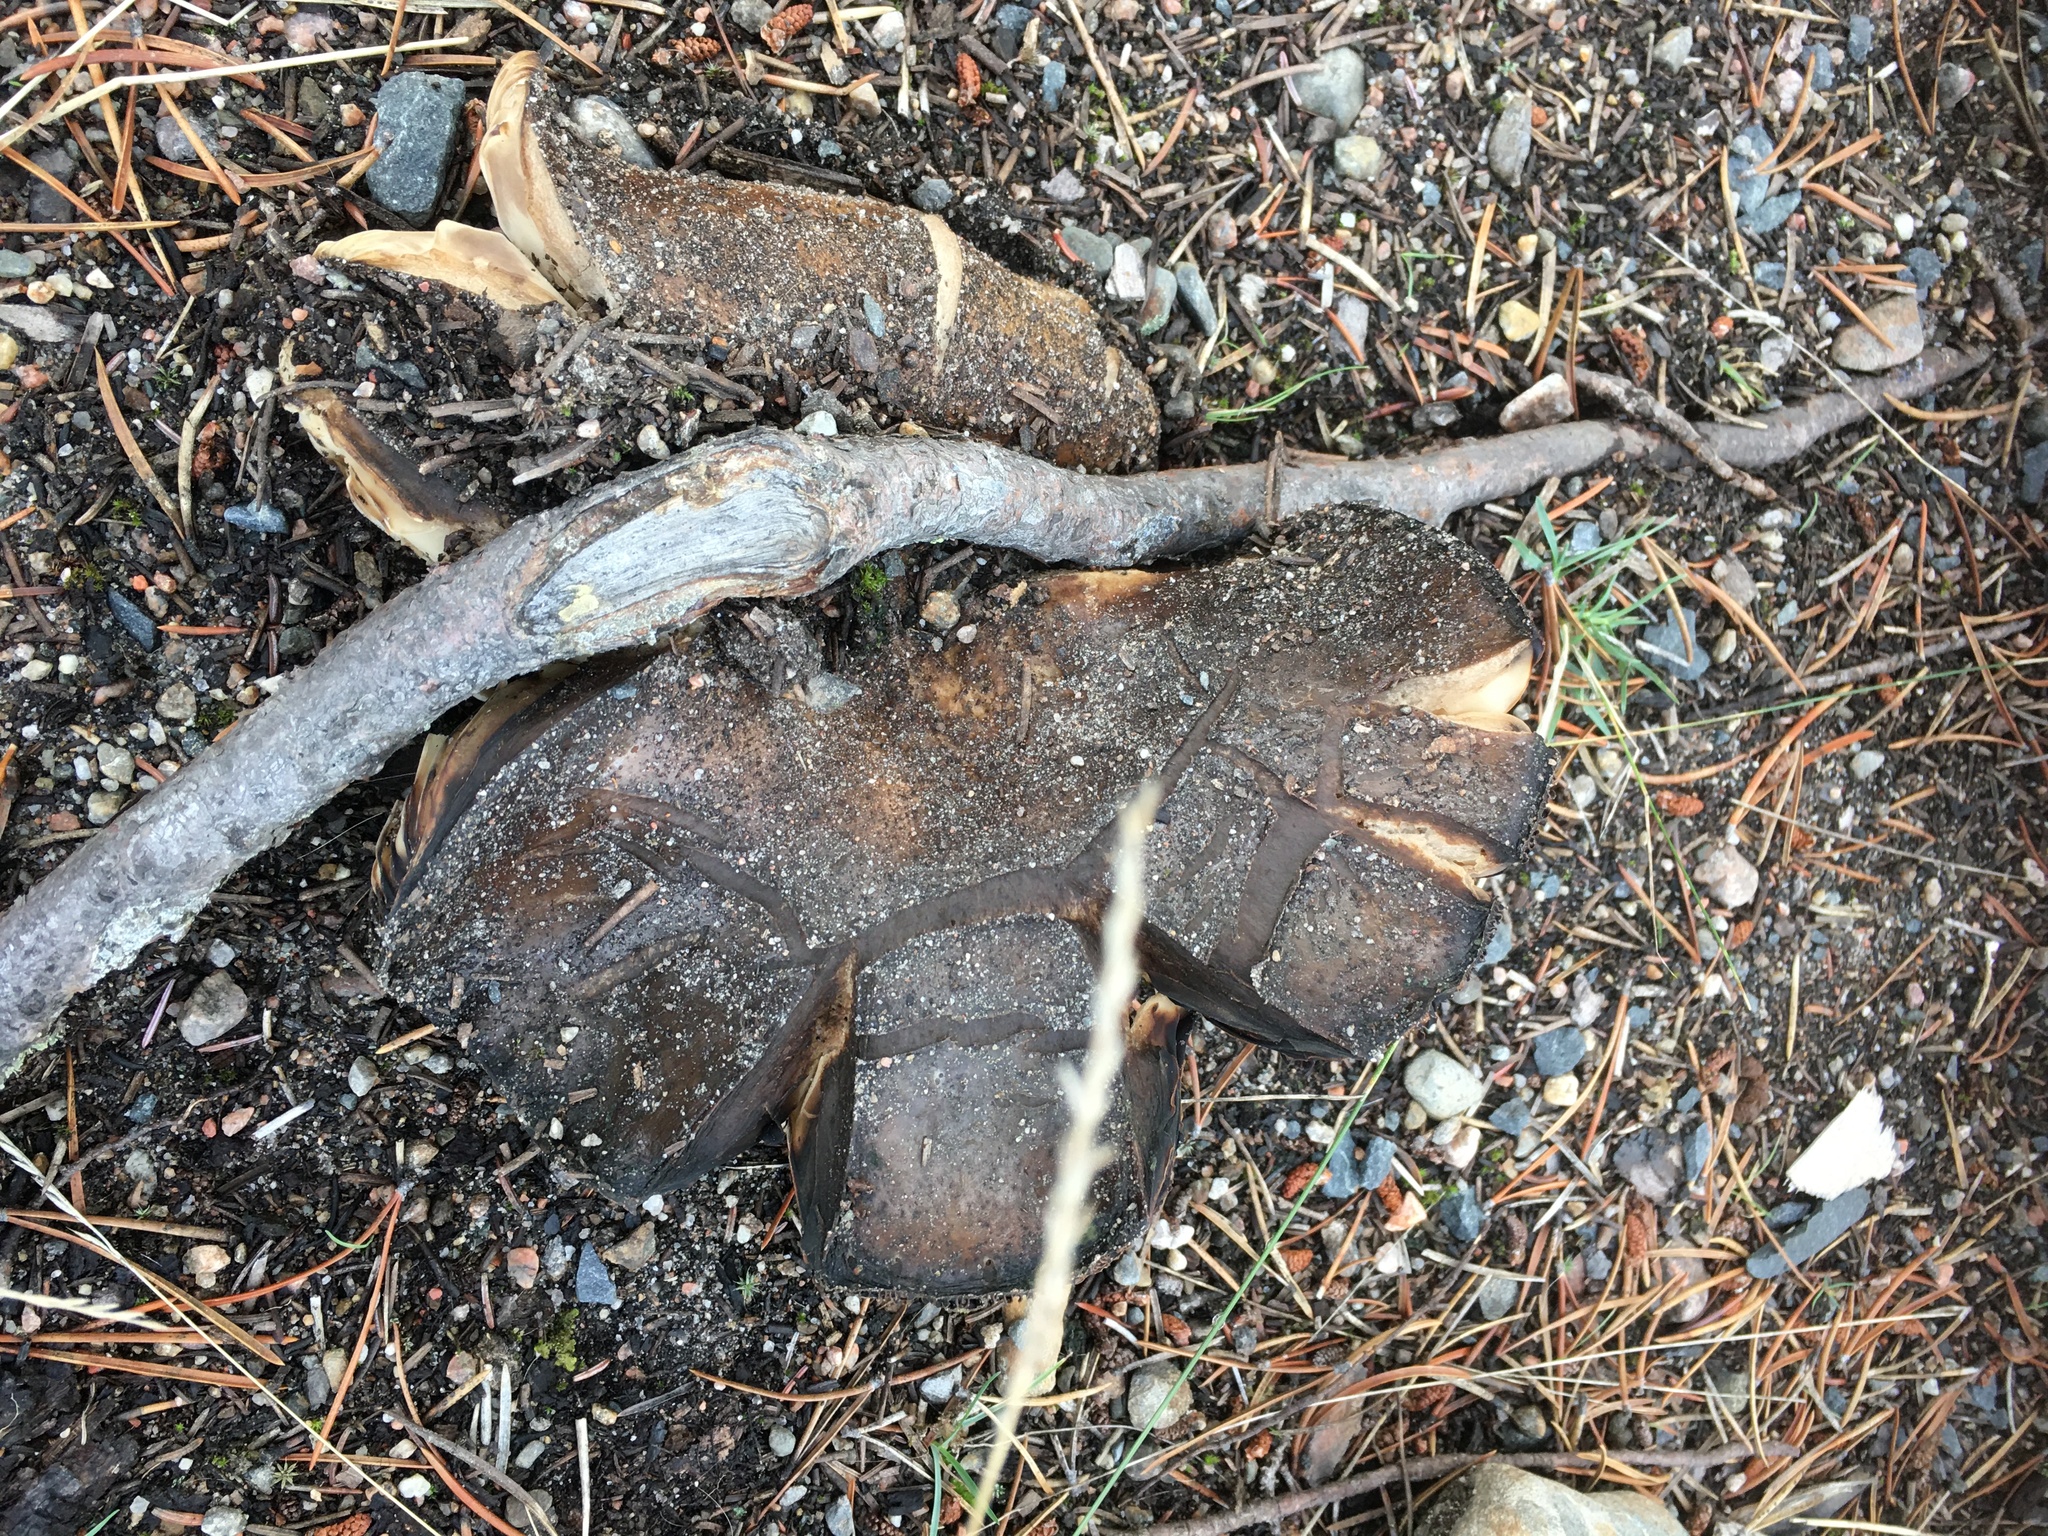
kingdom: Fungi
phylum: Basidiomycota
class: Agaricomycetes
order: Russulales
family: Russulaceae
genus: Russula
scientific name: Russula adusta
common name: Winecork brittlegill
